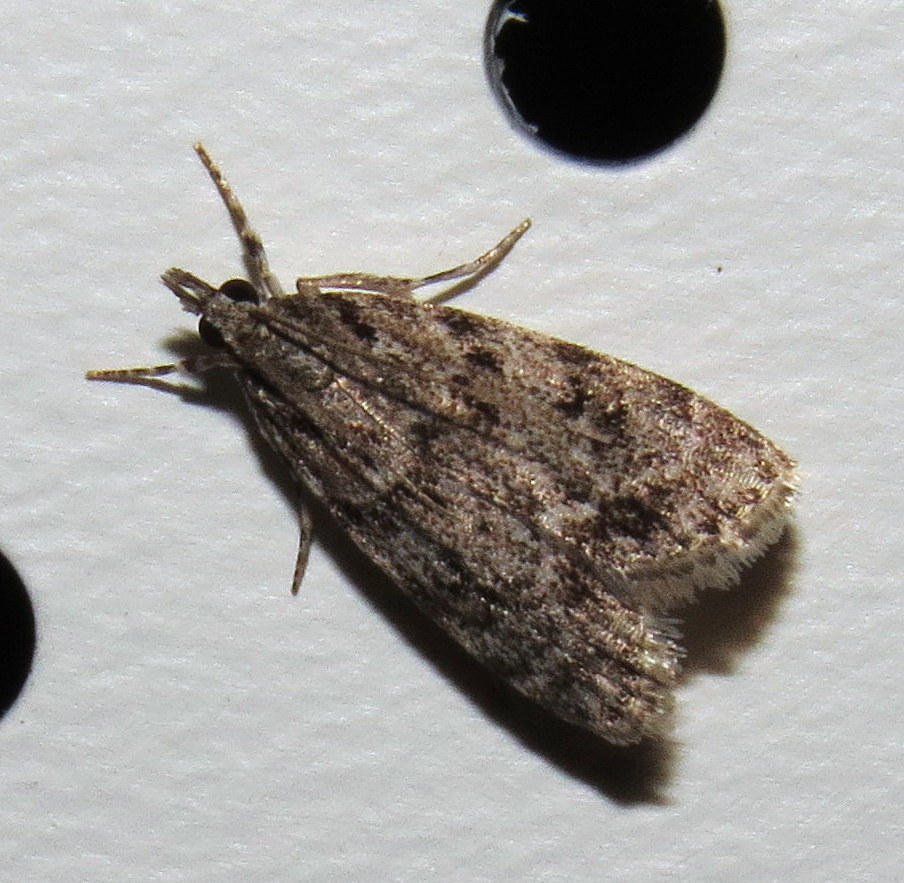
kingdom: Animalia
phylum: Arthropoda
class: Insecta
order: Lepidoptera
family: Crambidae
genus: Scoparia
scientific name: Scoparia basalis
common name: Many-spotted scoparia moth
